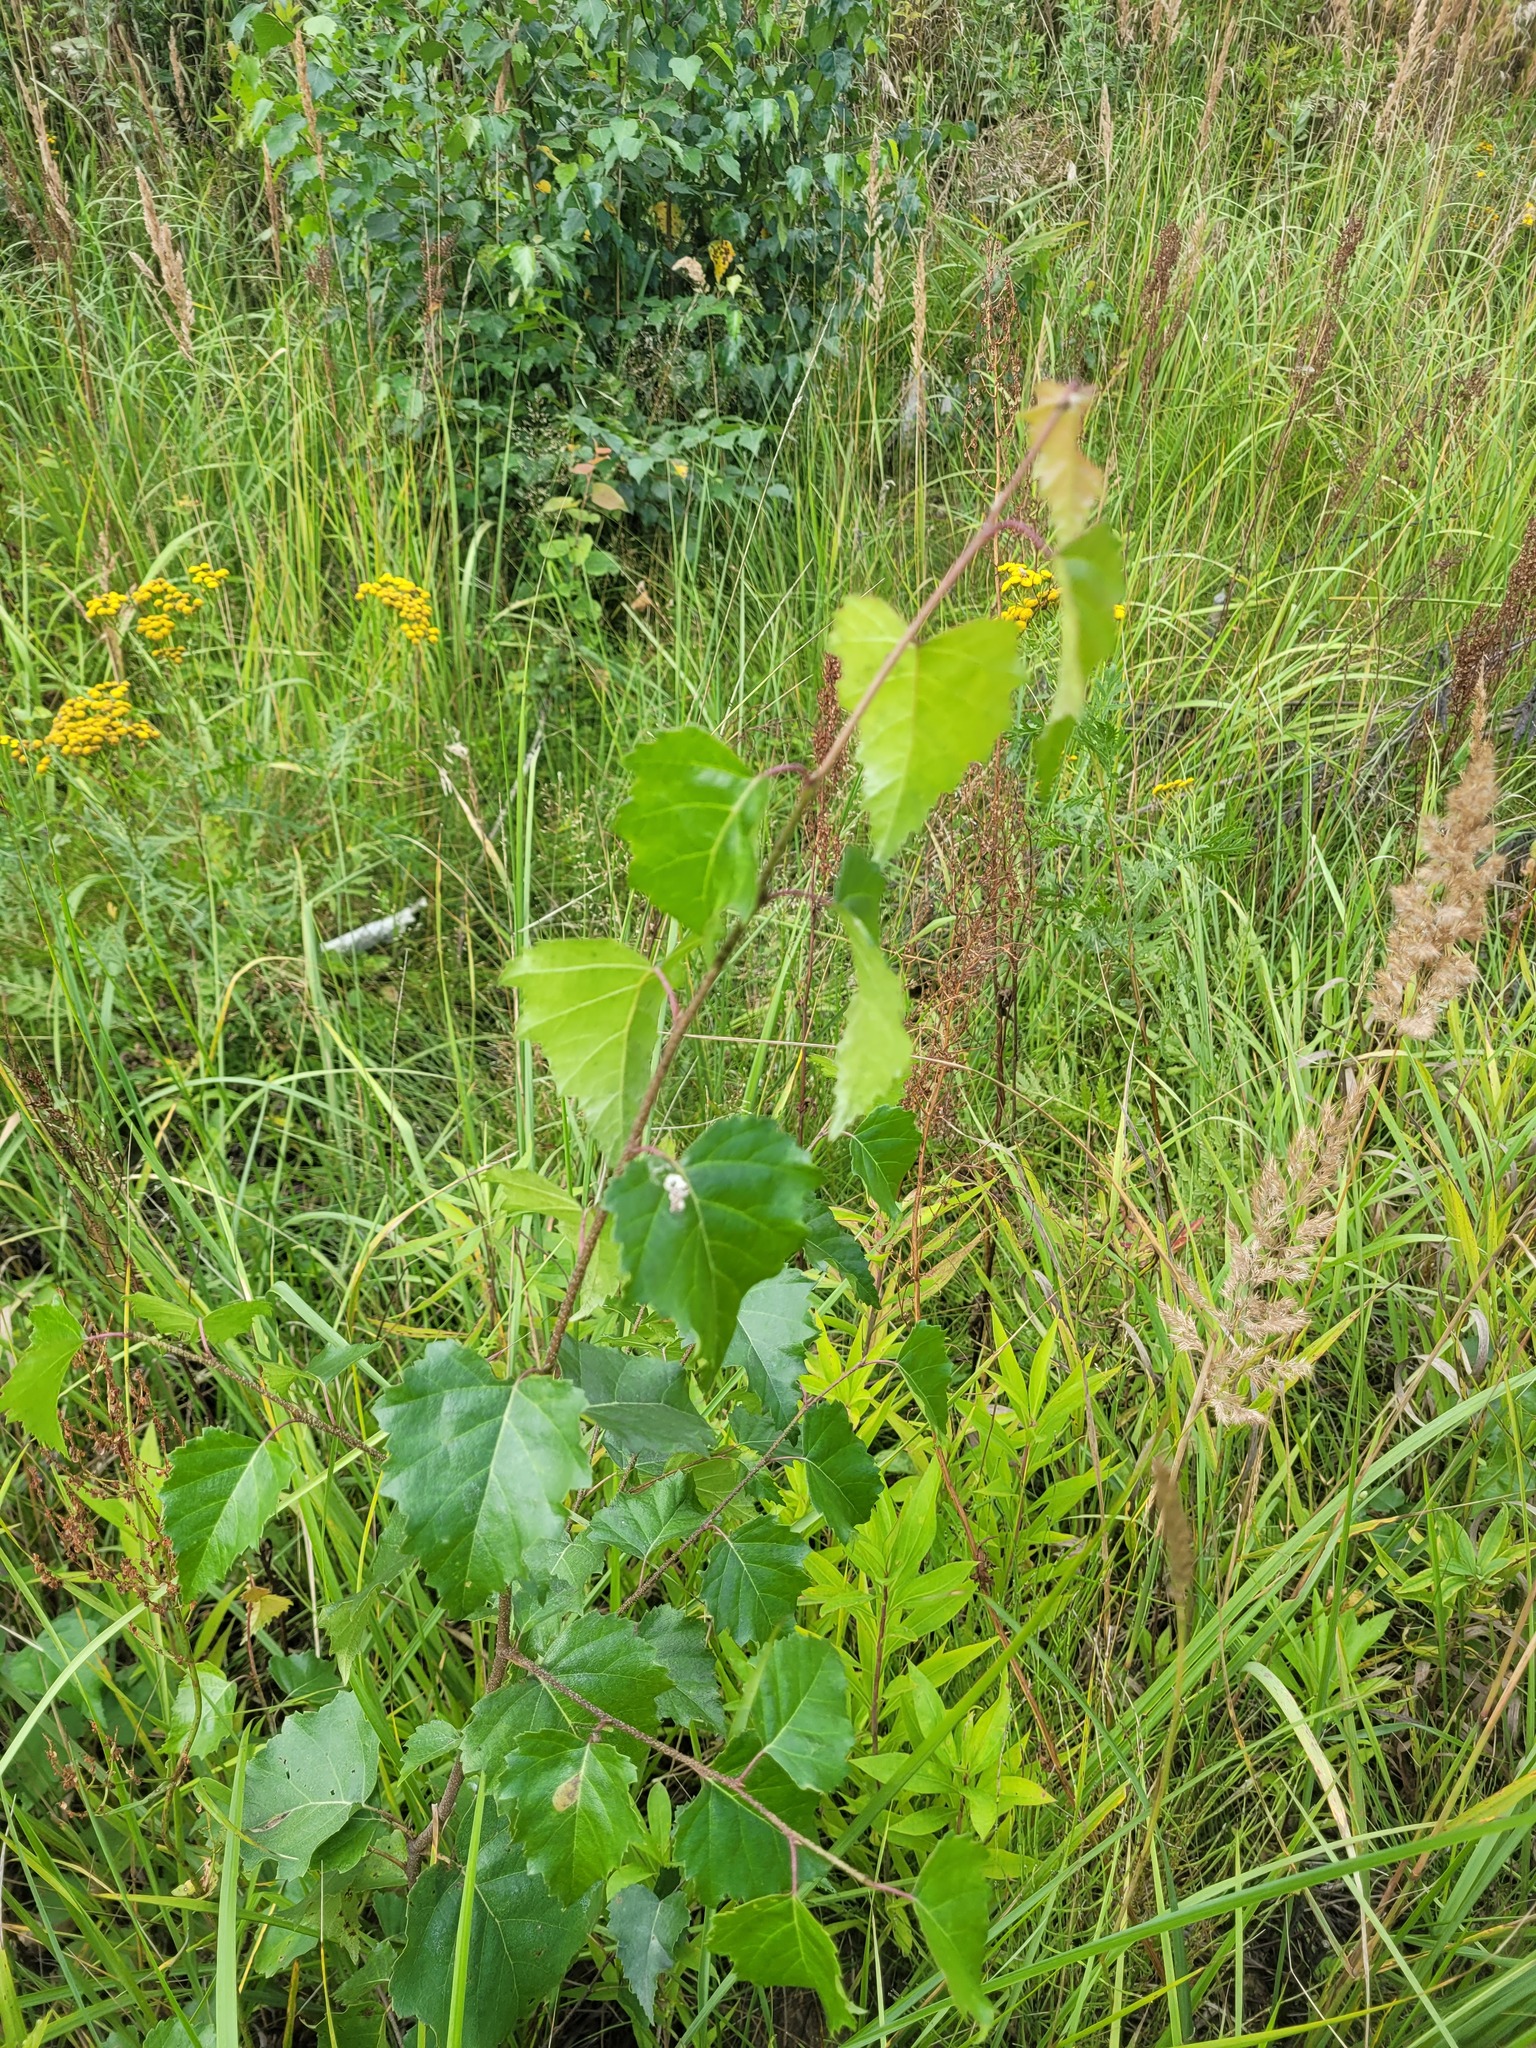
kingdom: Plantae
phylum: Tracheophyta
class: Magnoliopsida
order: Fagales
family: Betulaceae
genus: Betula
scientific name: Betula pendula
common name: Silver birch
